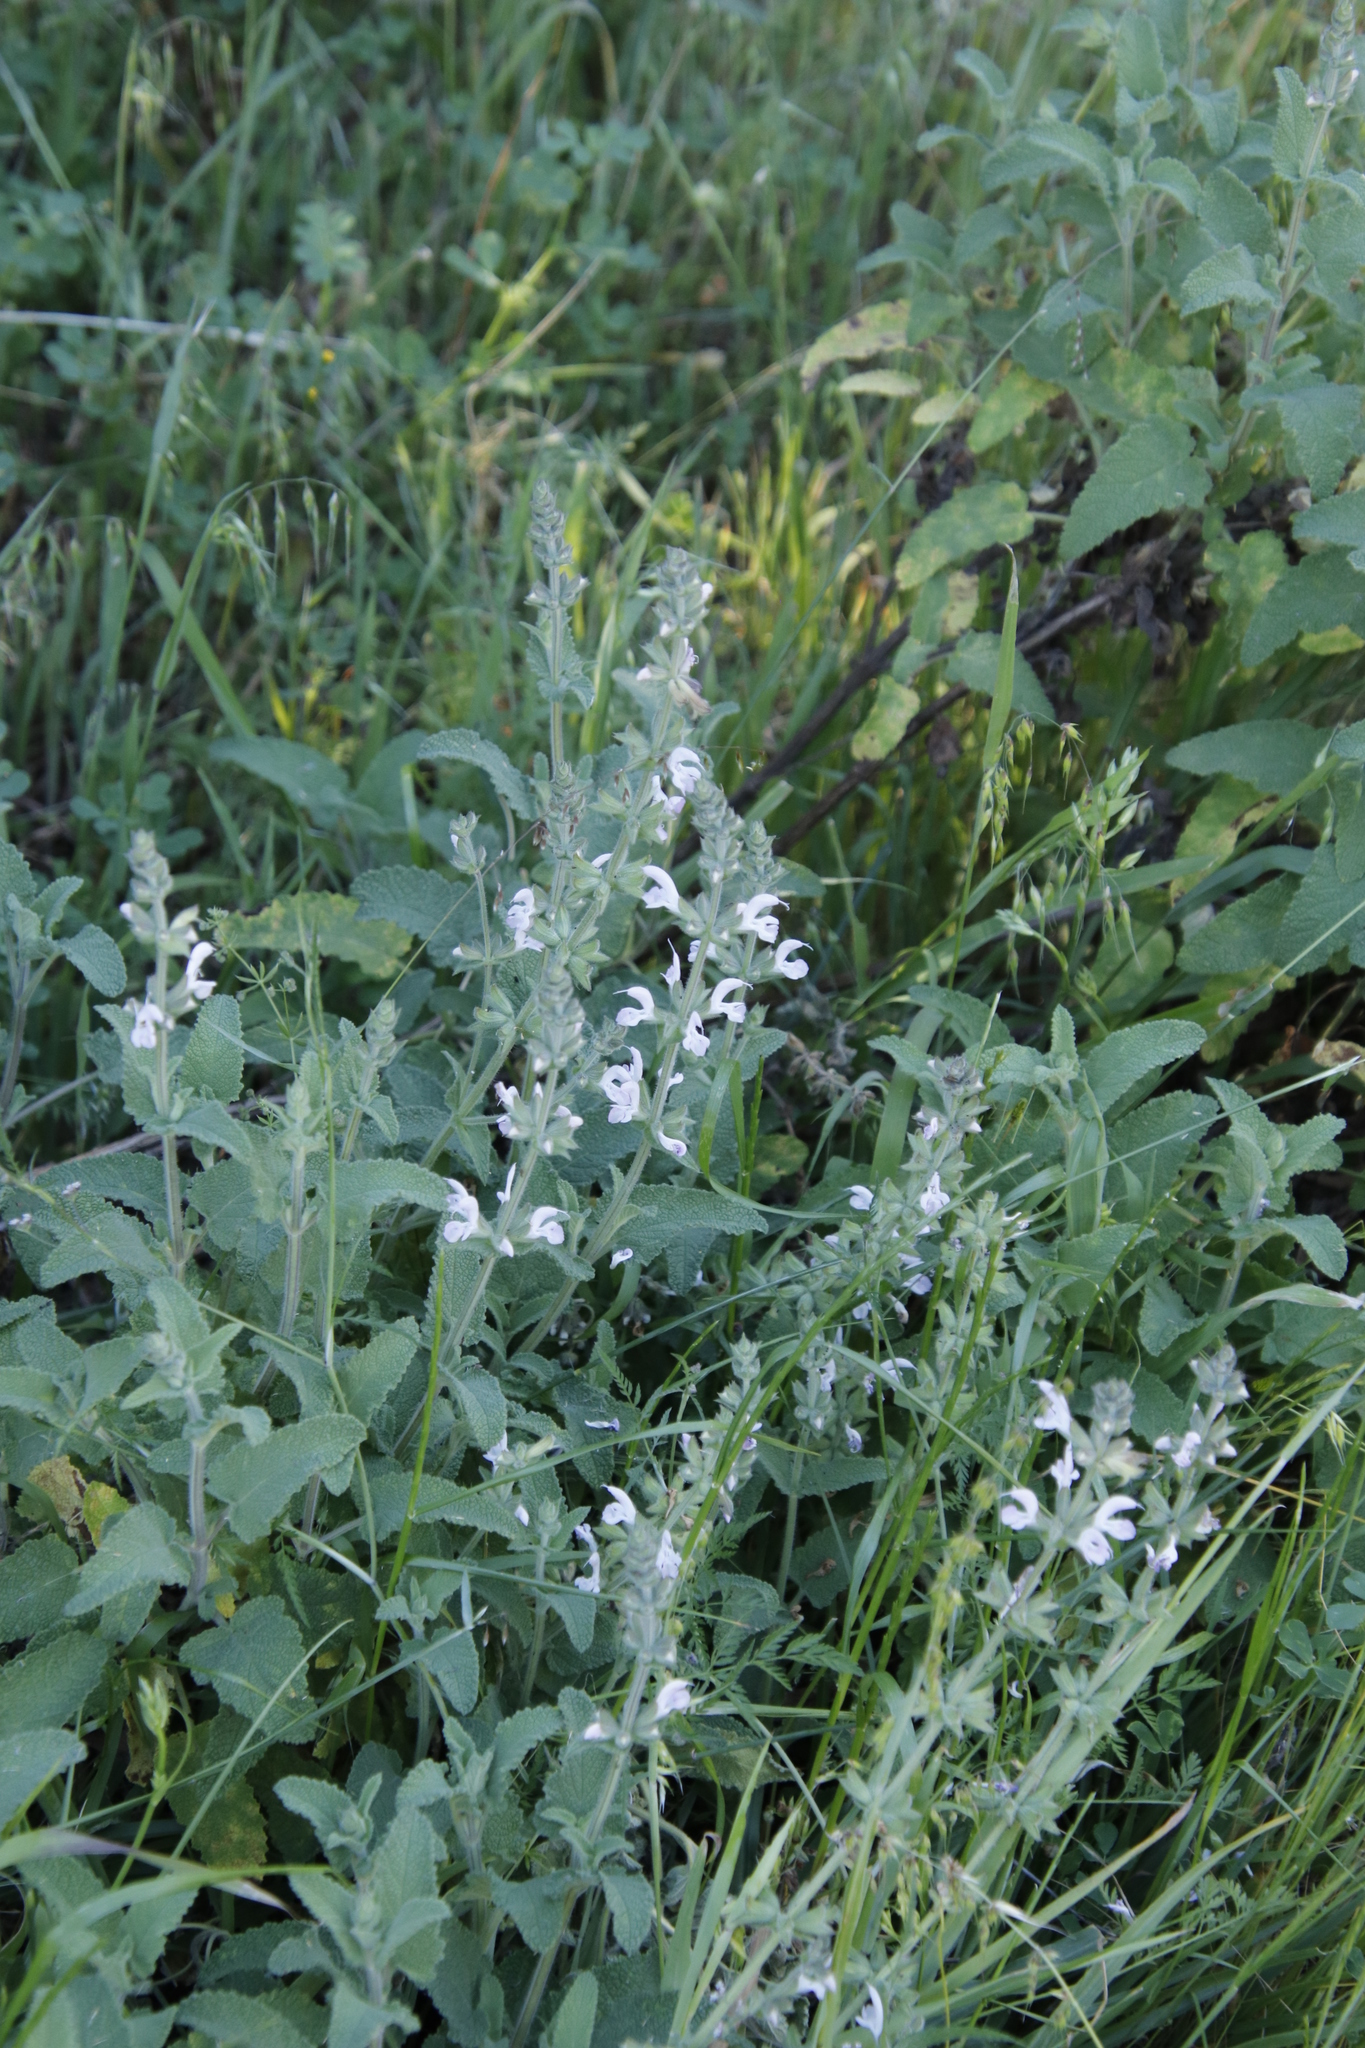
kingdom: Plantae
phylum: Tracheophyta
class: Magnoliopsida
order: Lamiales
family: Lamiaceae
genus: Salvia
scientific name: Salvia disermas
